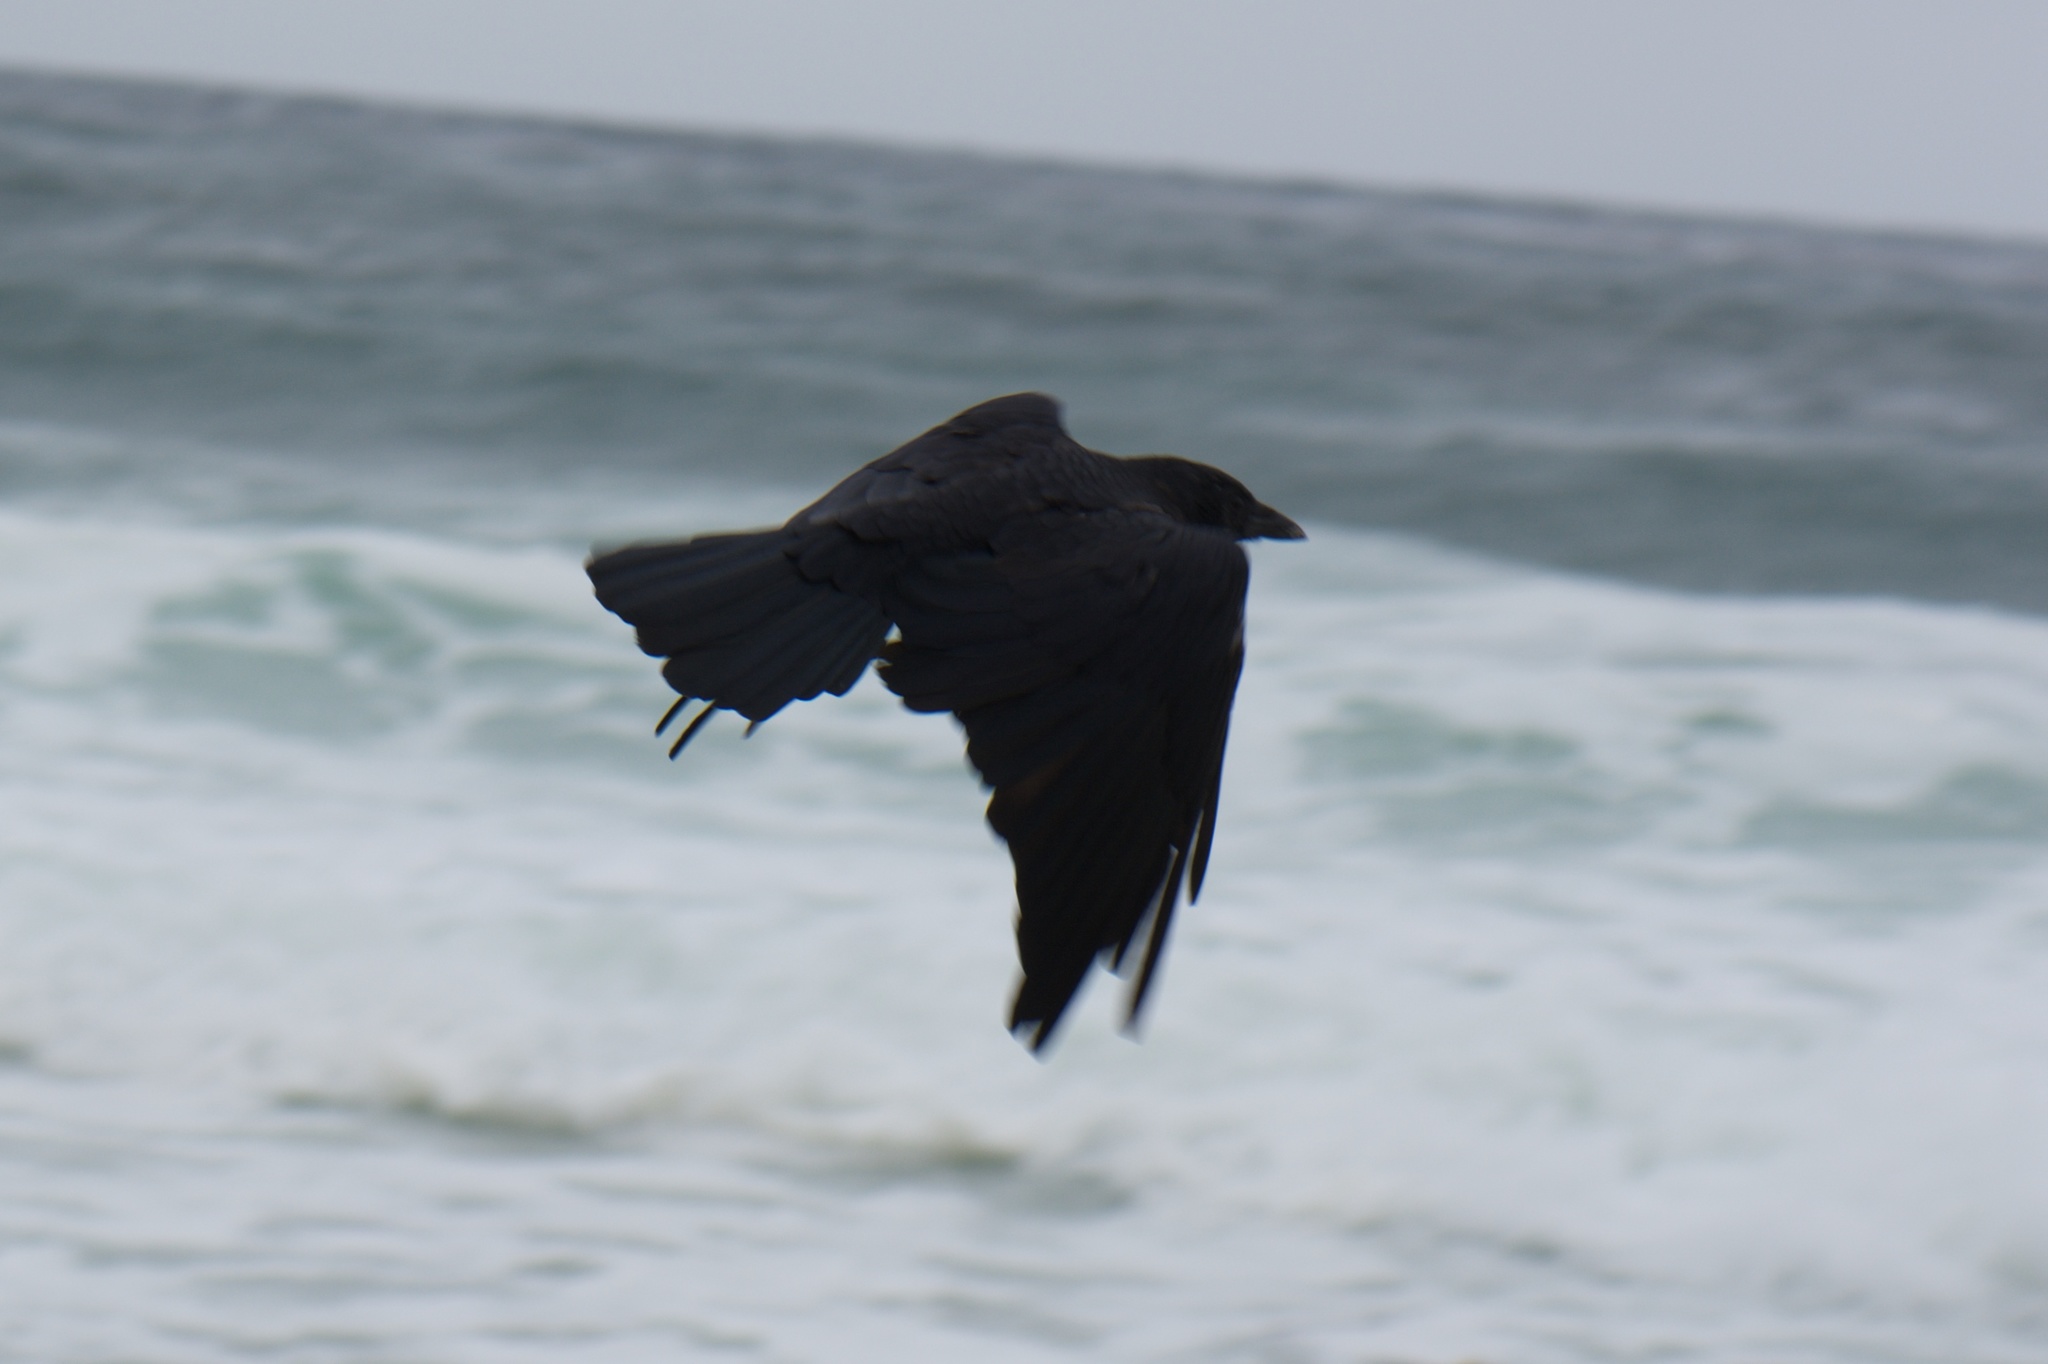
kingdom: Animalia
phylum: Chordata
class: Aves
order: Passeriformes
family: Corvidae
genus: Corvus
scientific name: Corvus brachyrhynchos
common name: American crow
